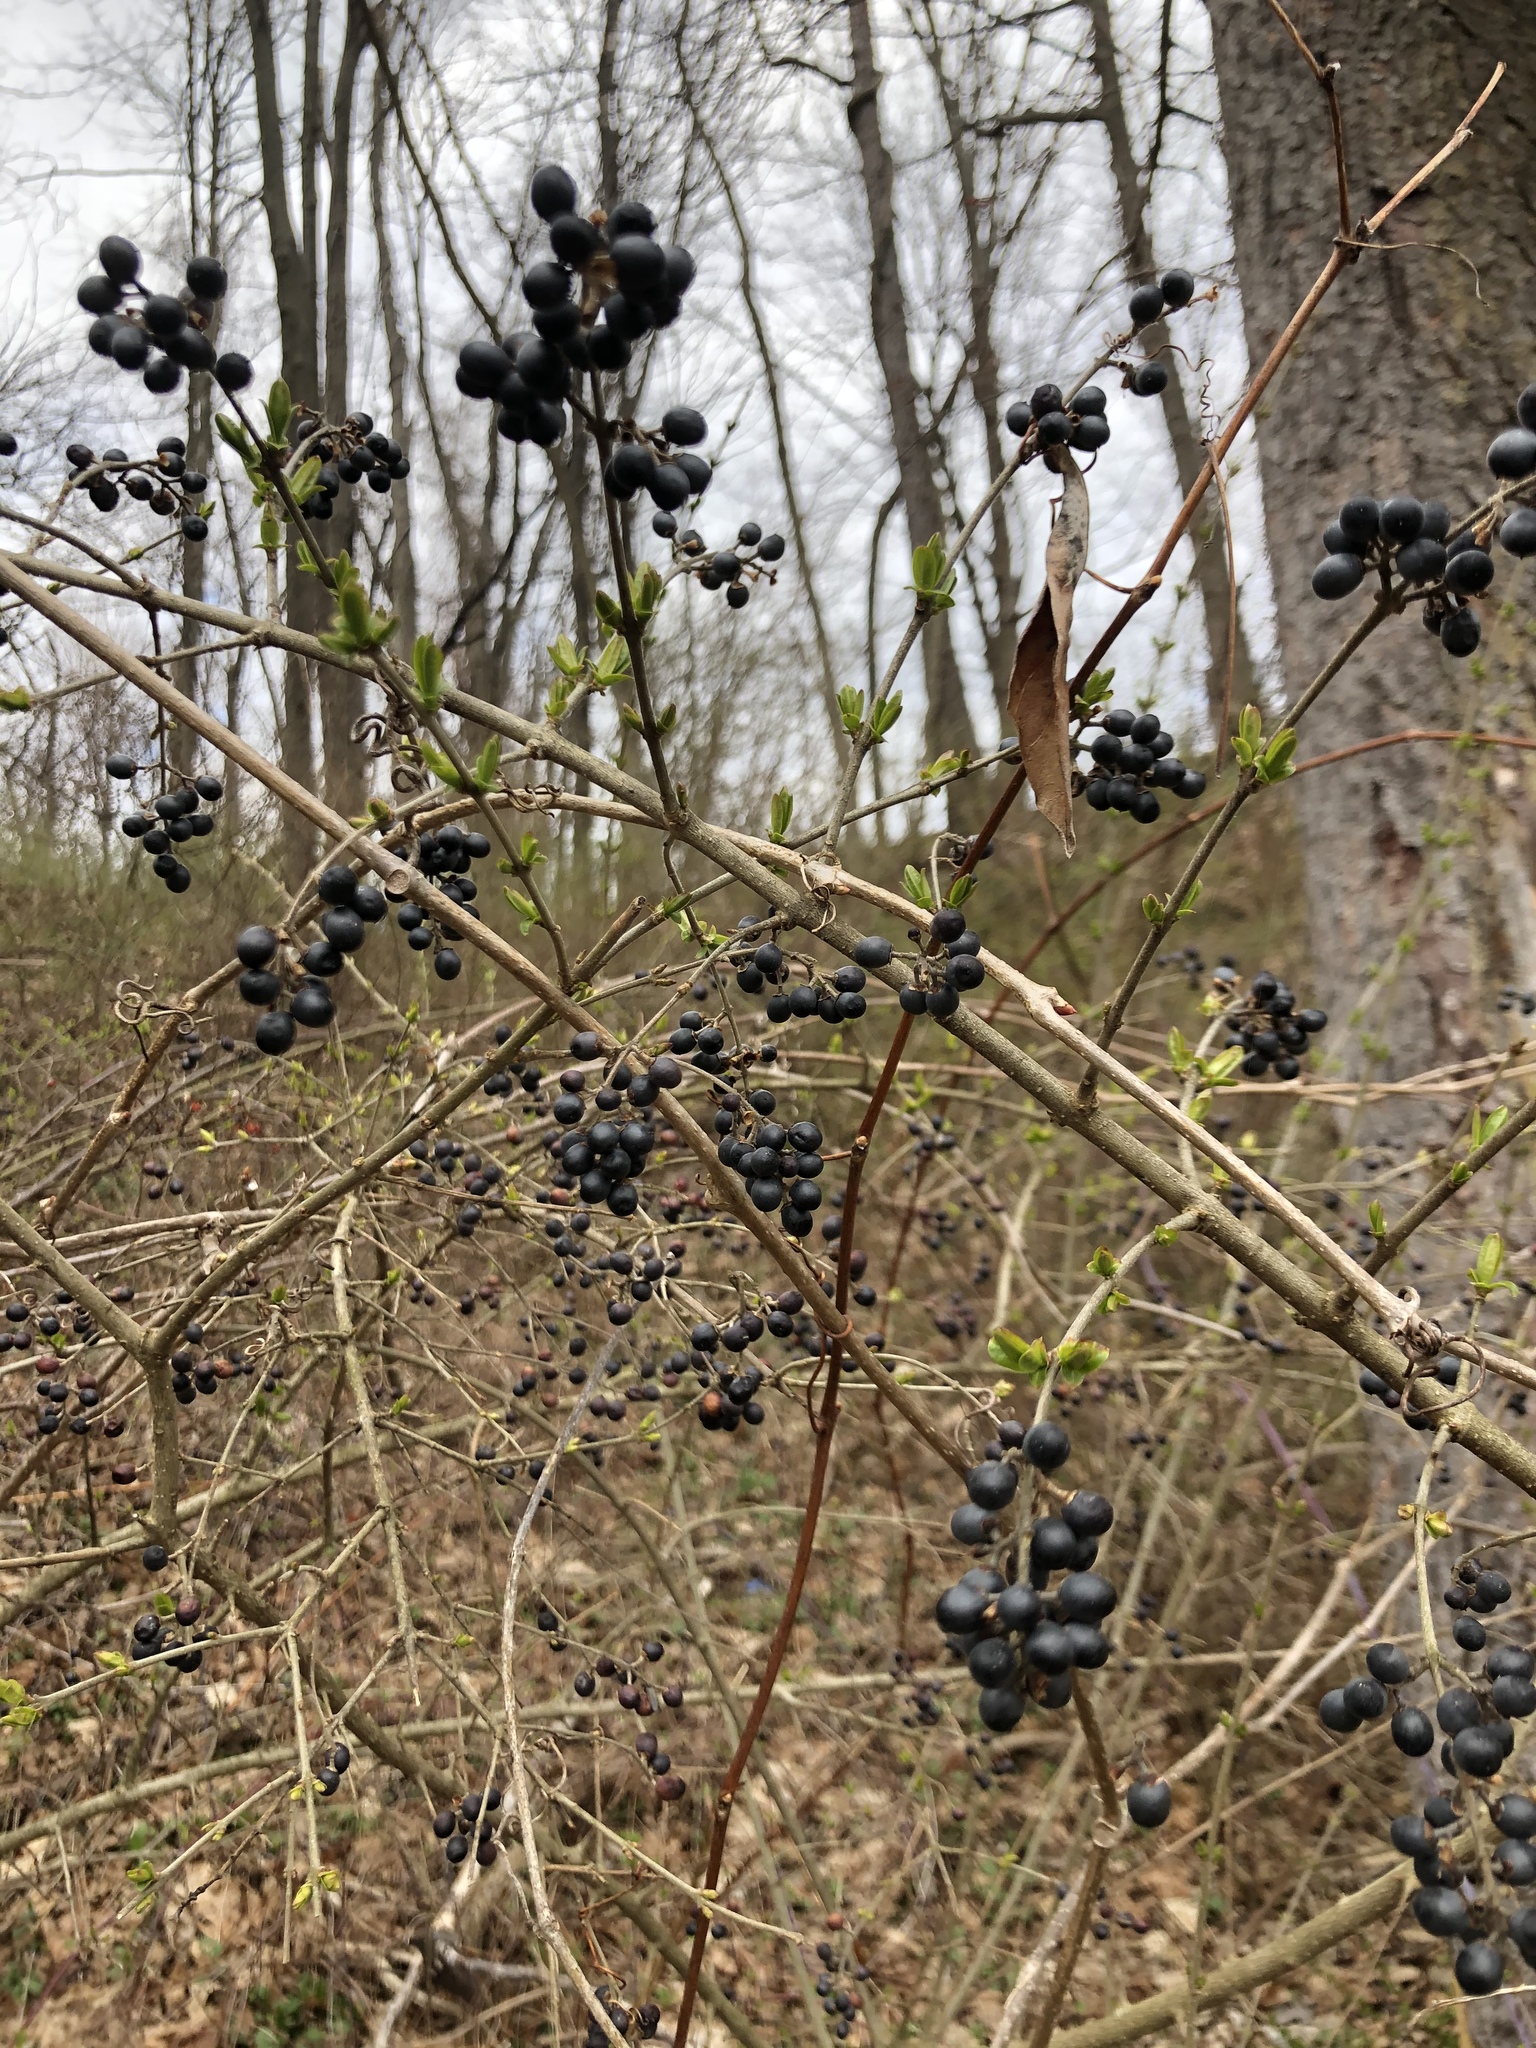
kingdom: Plantae
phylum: Tracheophyta
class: Magnoliopsida
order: Lamiales
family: Oleaceae
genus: Ligustrum
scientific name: Ligustrum vulgare
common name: Wild privet
